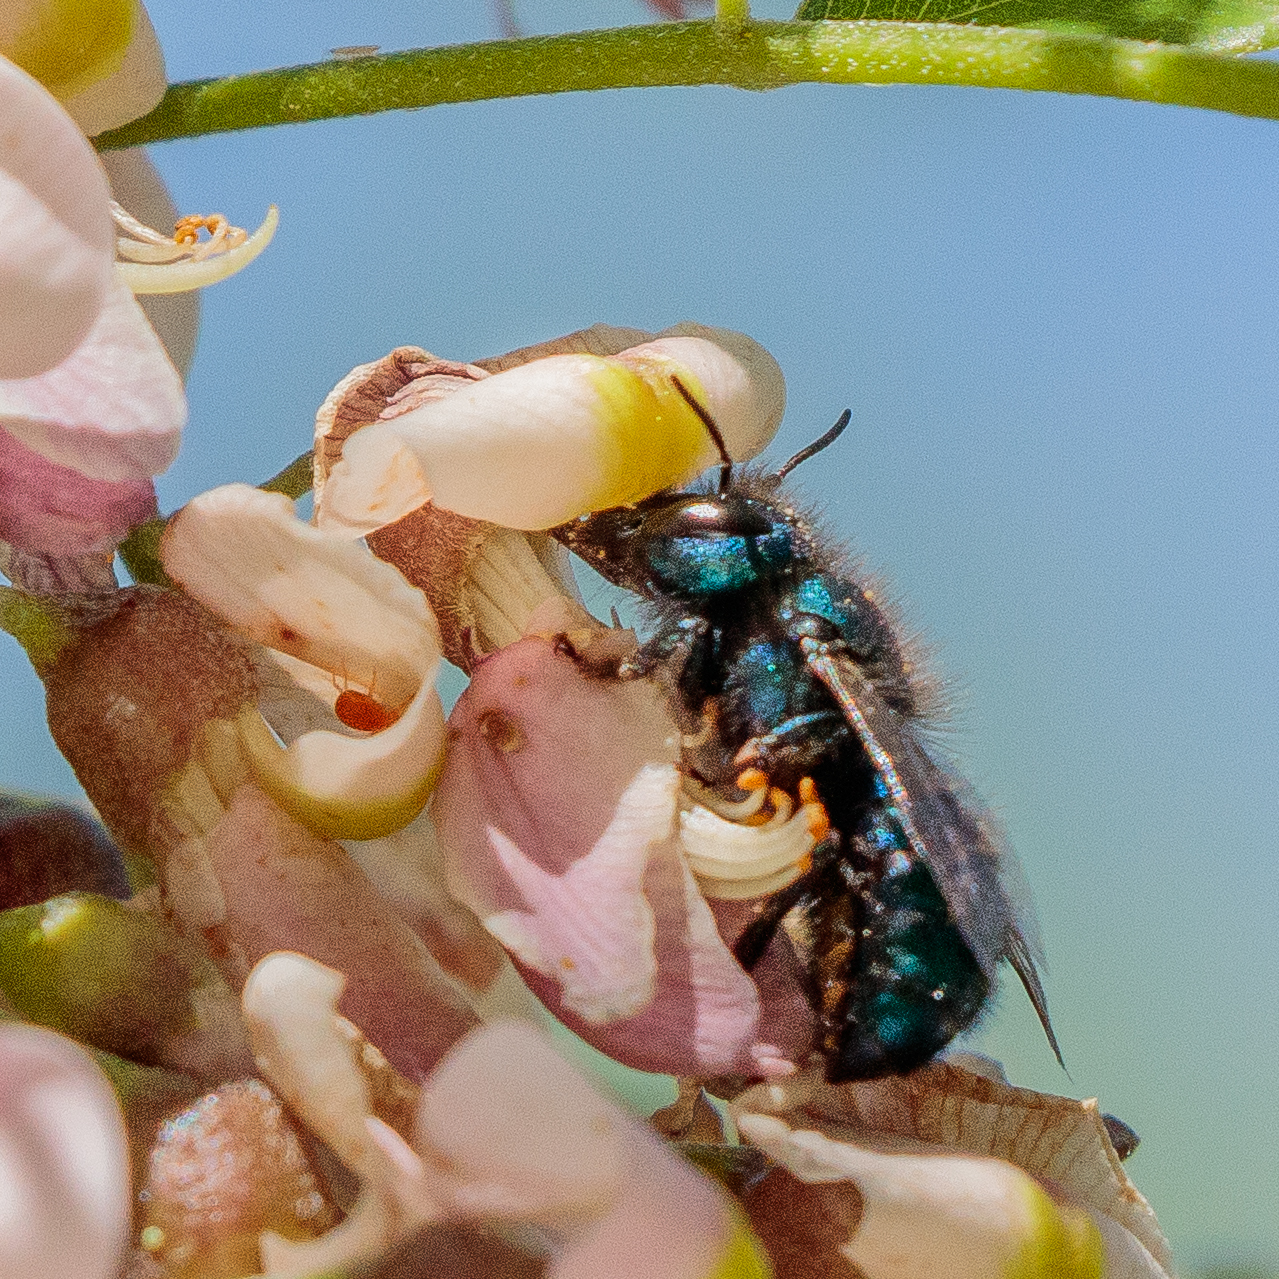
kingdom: Animalia
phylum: Arthropoda
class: Insecta
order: Hymenoptera
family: Megachilidae
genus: Osmia
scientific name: Osmia ribifloris
